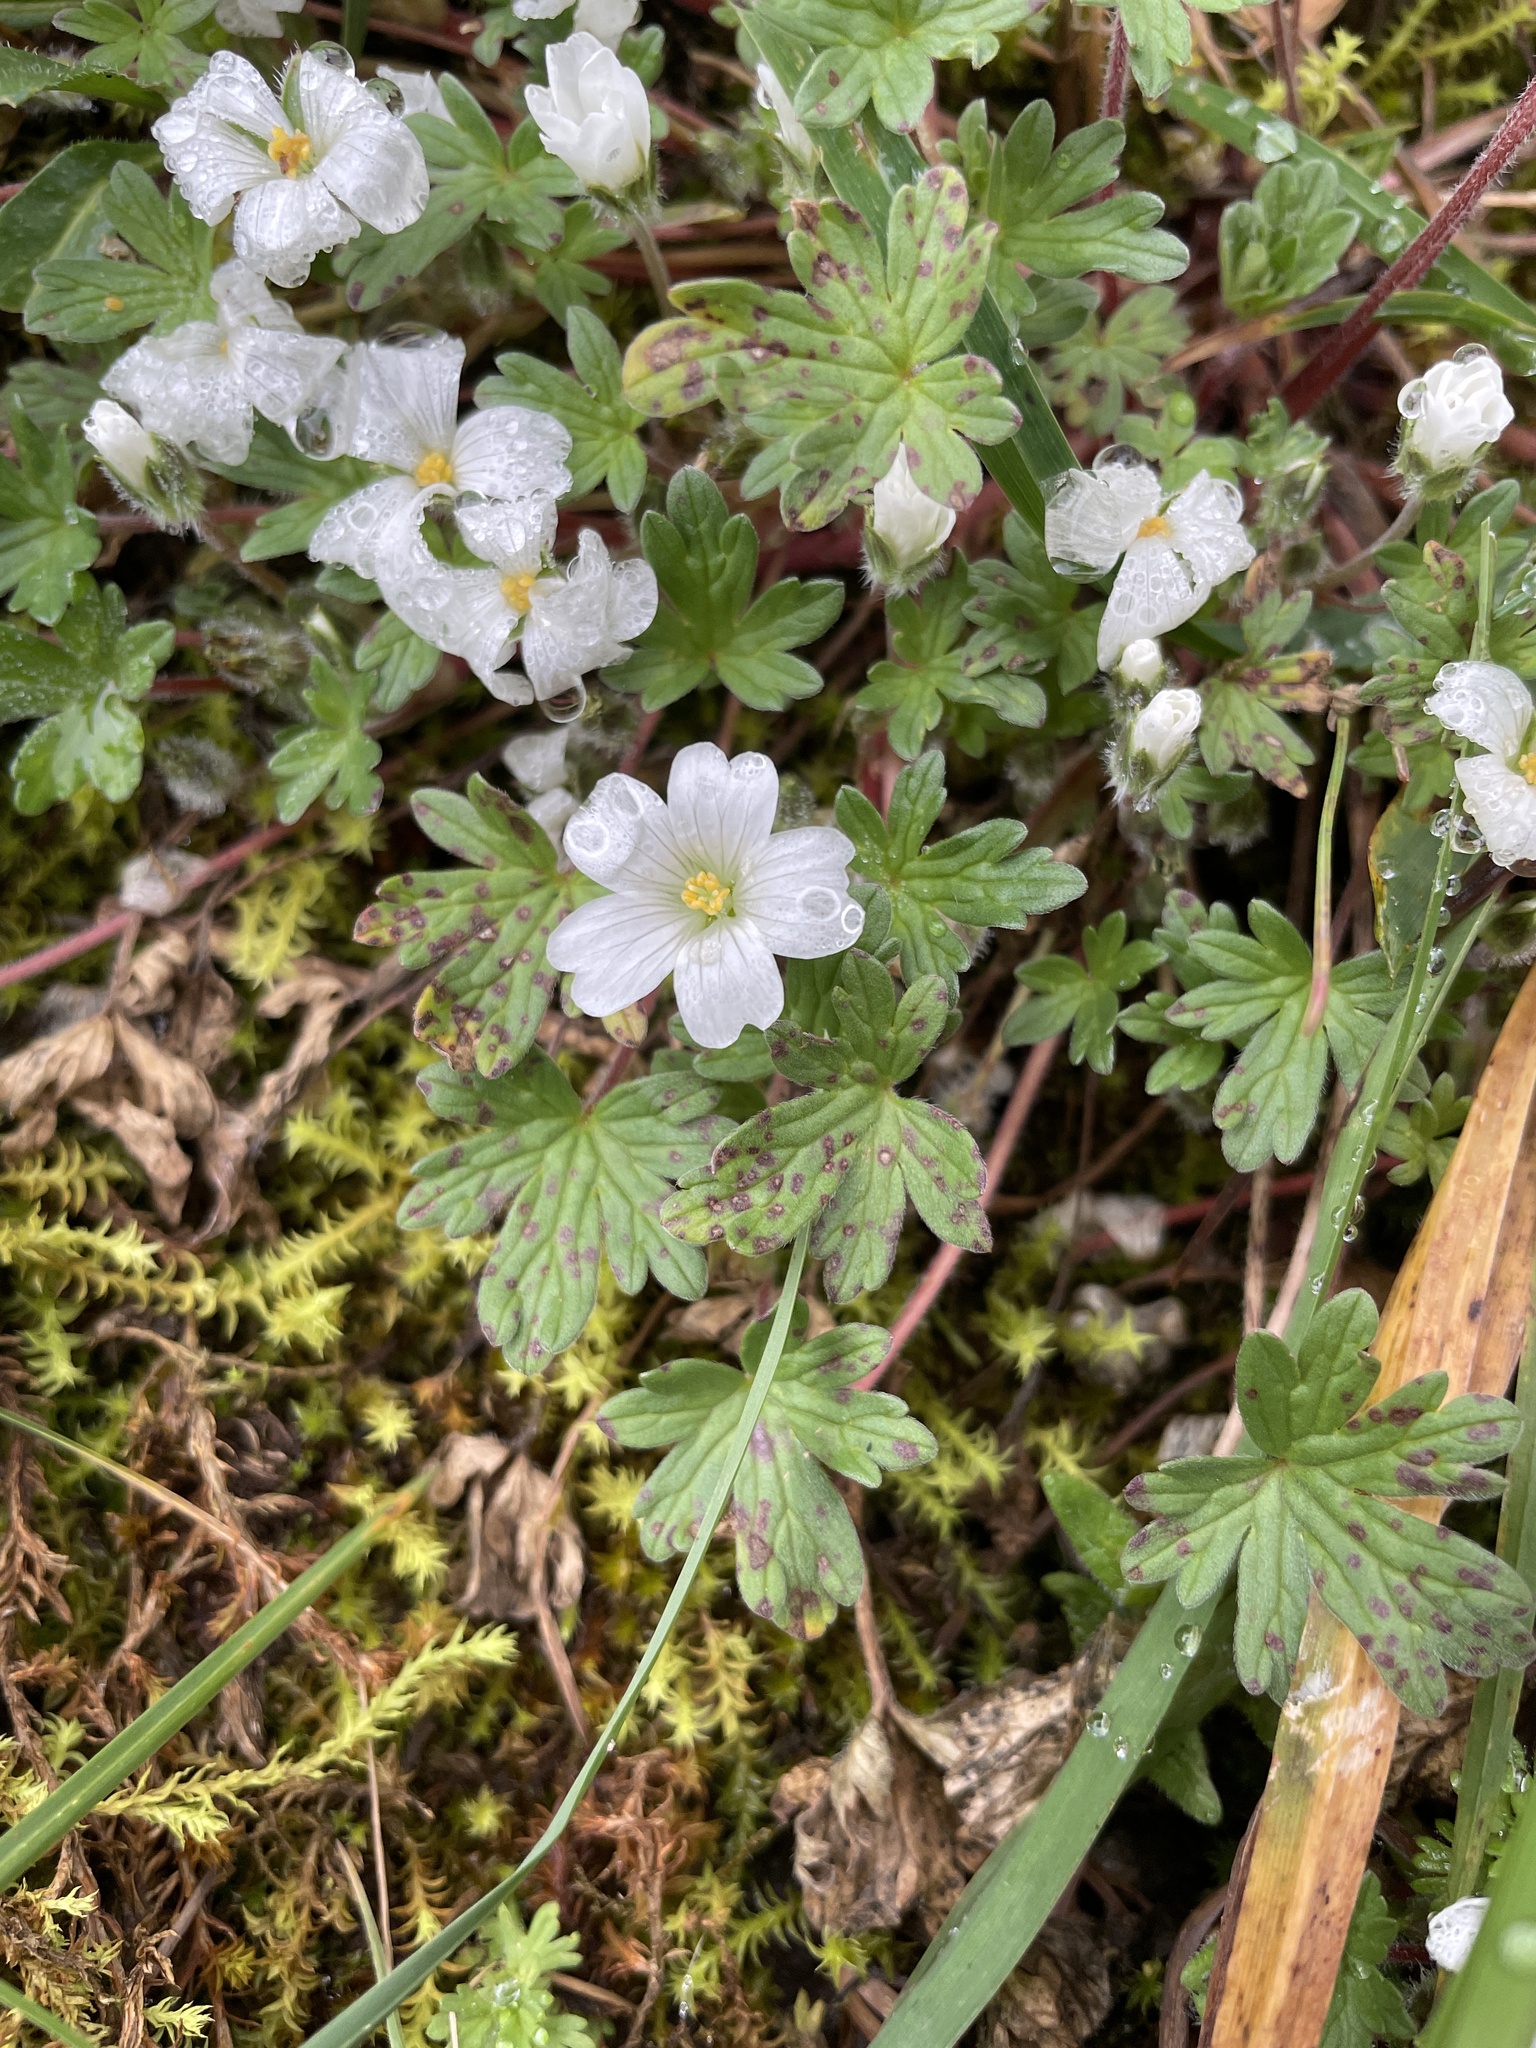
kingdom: Plantae
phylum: Tracheophyta
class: Magnoliopsida
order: Geraniales
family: Geraniaceae
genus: Geranium
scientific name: Geranium sessiliflorum
